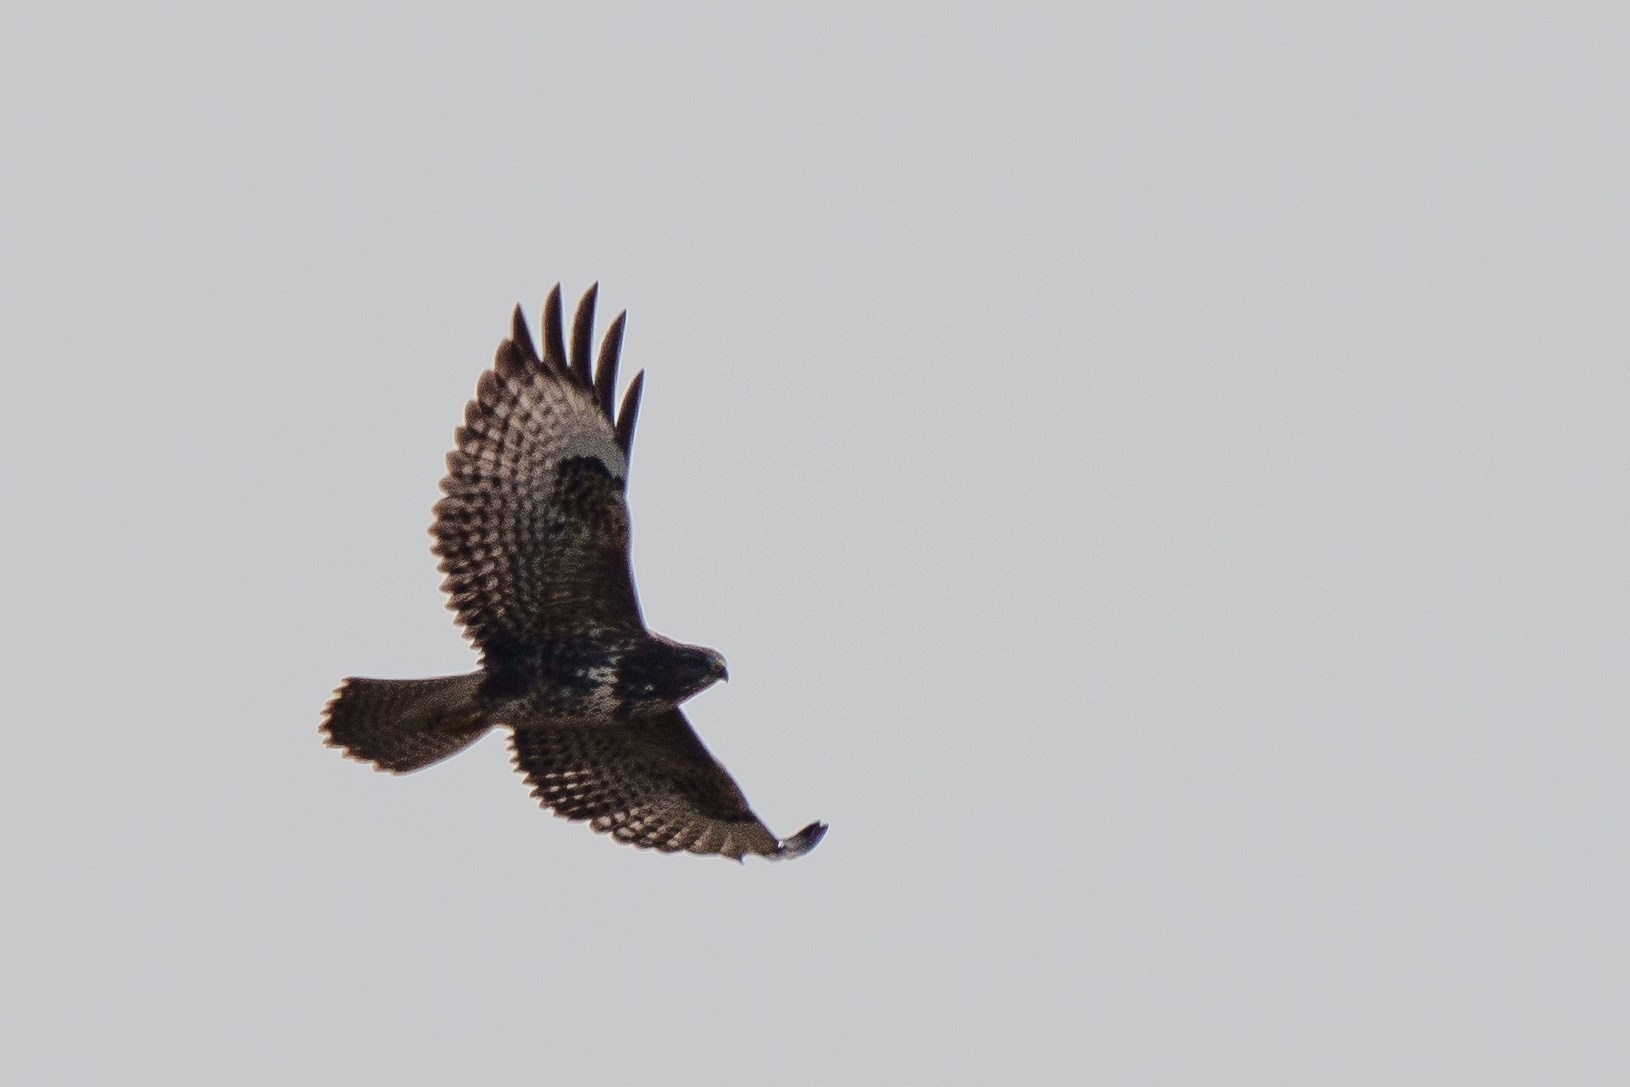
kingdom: Animalia
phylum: Chordata
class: Aves
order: Accipitriformes
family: Accipitridae
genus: Buteo
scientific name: Buteo buteo
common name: Common buzzard
